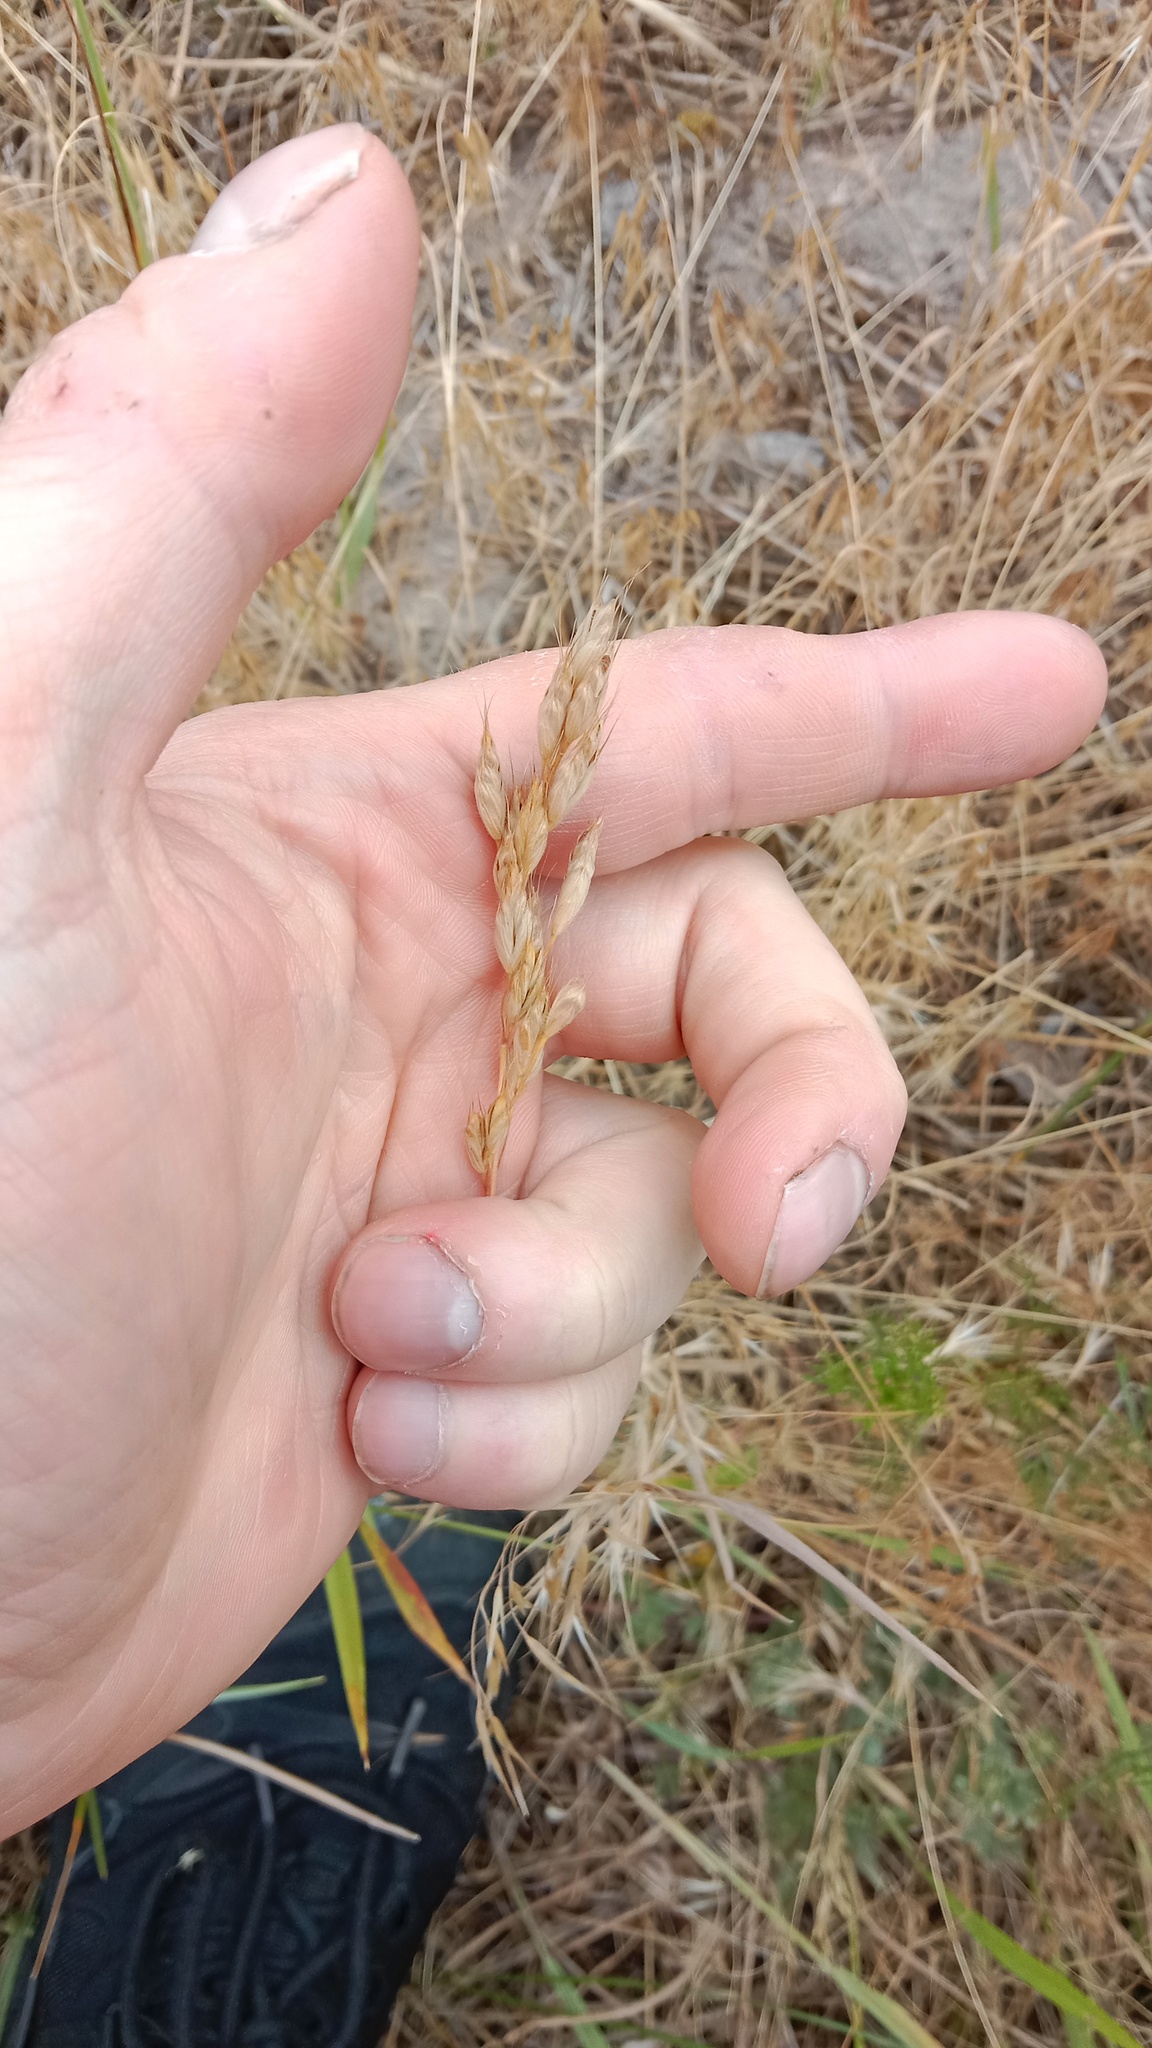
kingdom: Plantae
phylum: Tracheophyta
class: Liliopsida
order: Poales
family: Poaceae
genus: Bromus
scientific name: Bromus hordeaceus
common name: Soft brome
